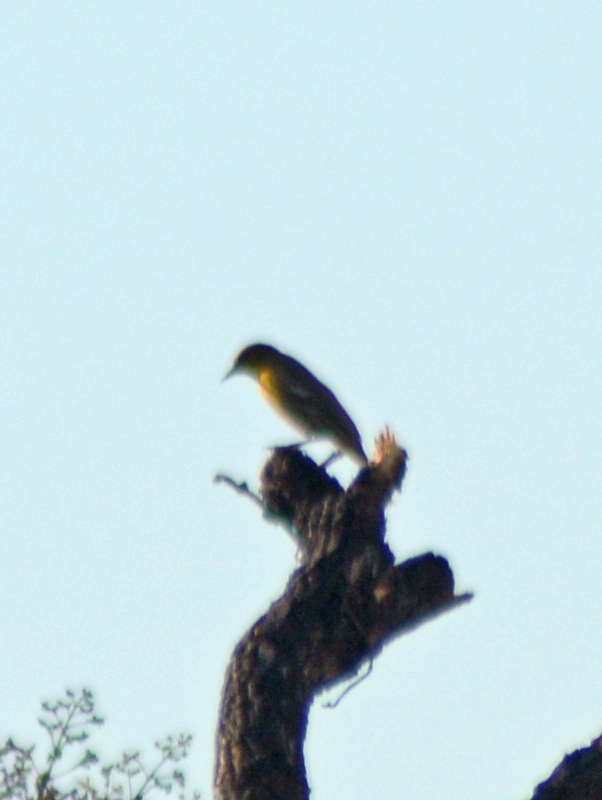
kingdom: Animalia
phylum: Chordata
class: Aves
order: Passeriformes
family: Icteridae
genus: Icterus
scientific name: Icterus abeillei
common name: Black-backed oriole
